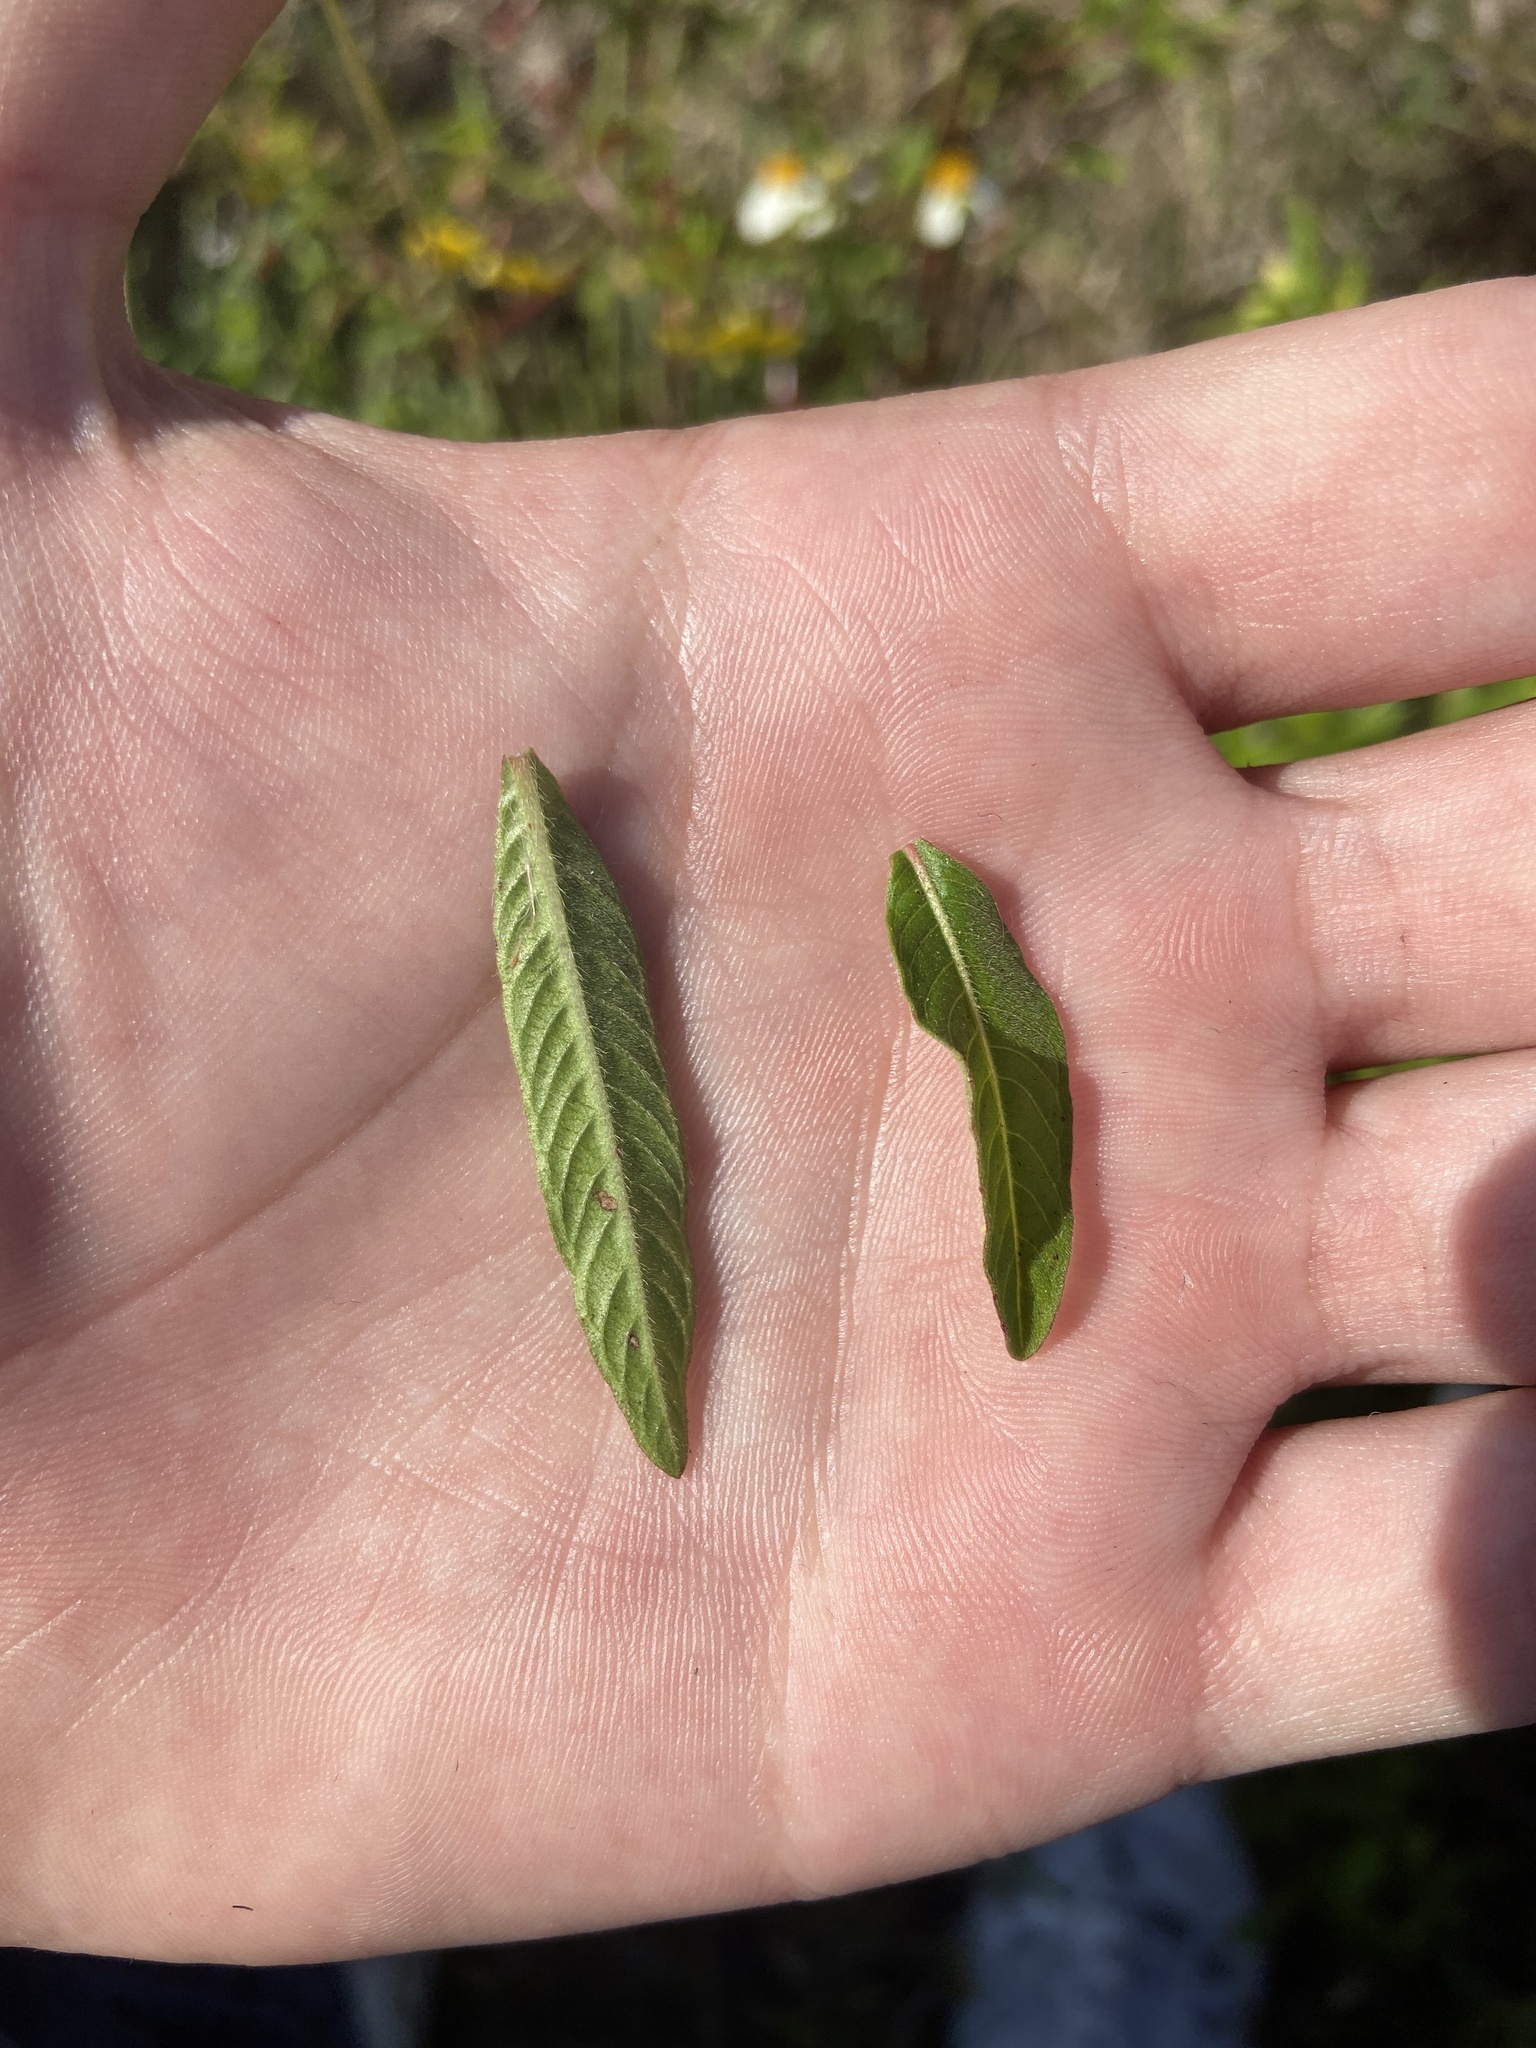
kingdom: Plantae
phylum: Tracheophyta
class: Magnoliopsida
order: Myrtales
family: Onagraceae
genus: Ludwigia
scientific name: Ludwigia octovalvis
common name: Water-primrose
